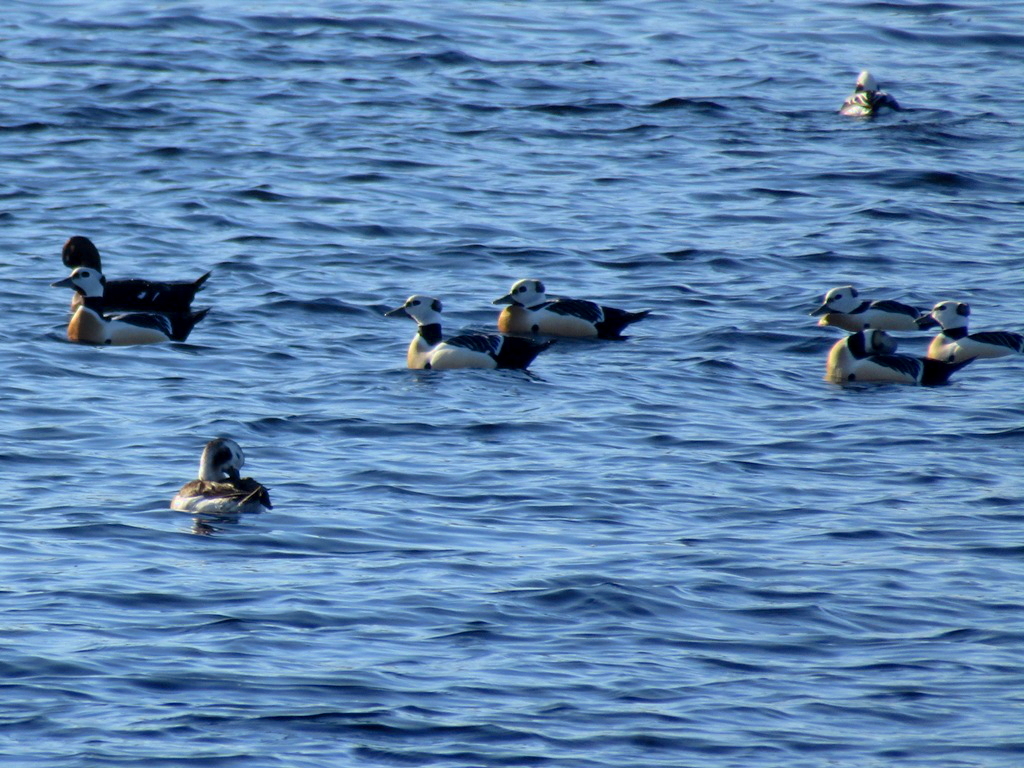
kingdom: Animalia
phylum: Chordata
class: Aves
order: Anseriformes
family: Anatidae
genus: Polysticta
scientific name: Polysticta stelleri
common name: Steller's eider
